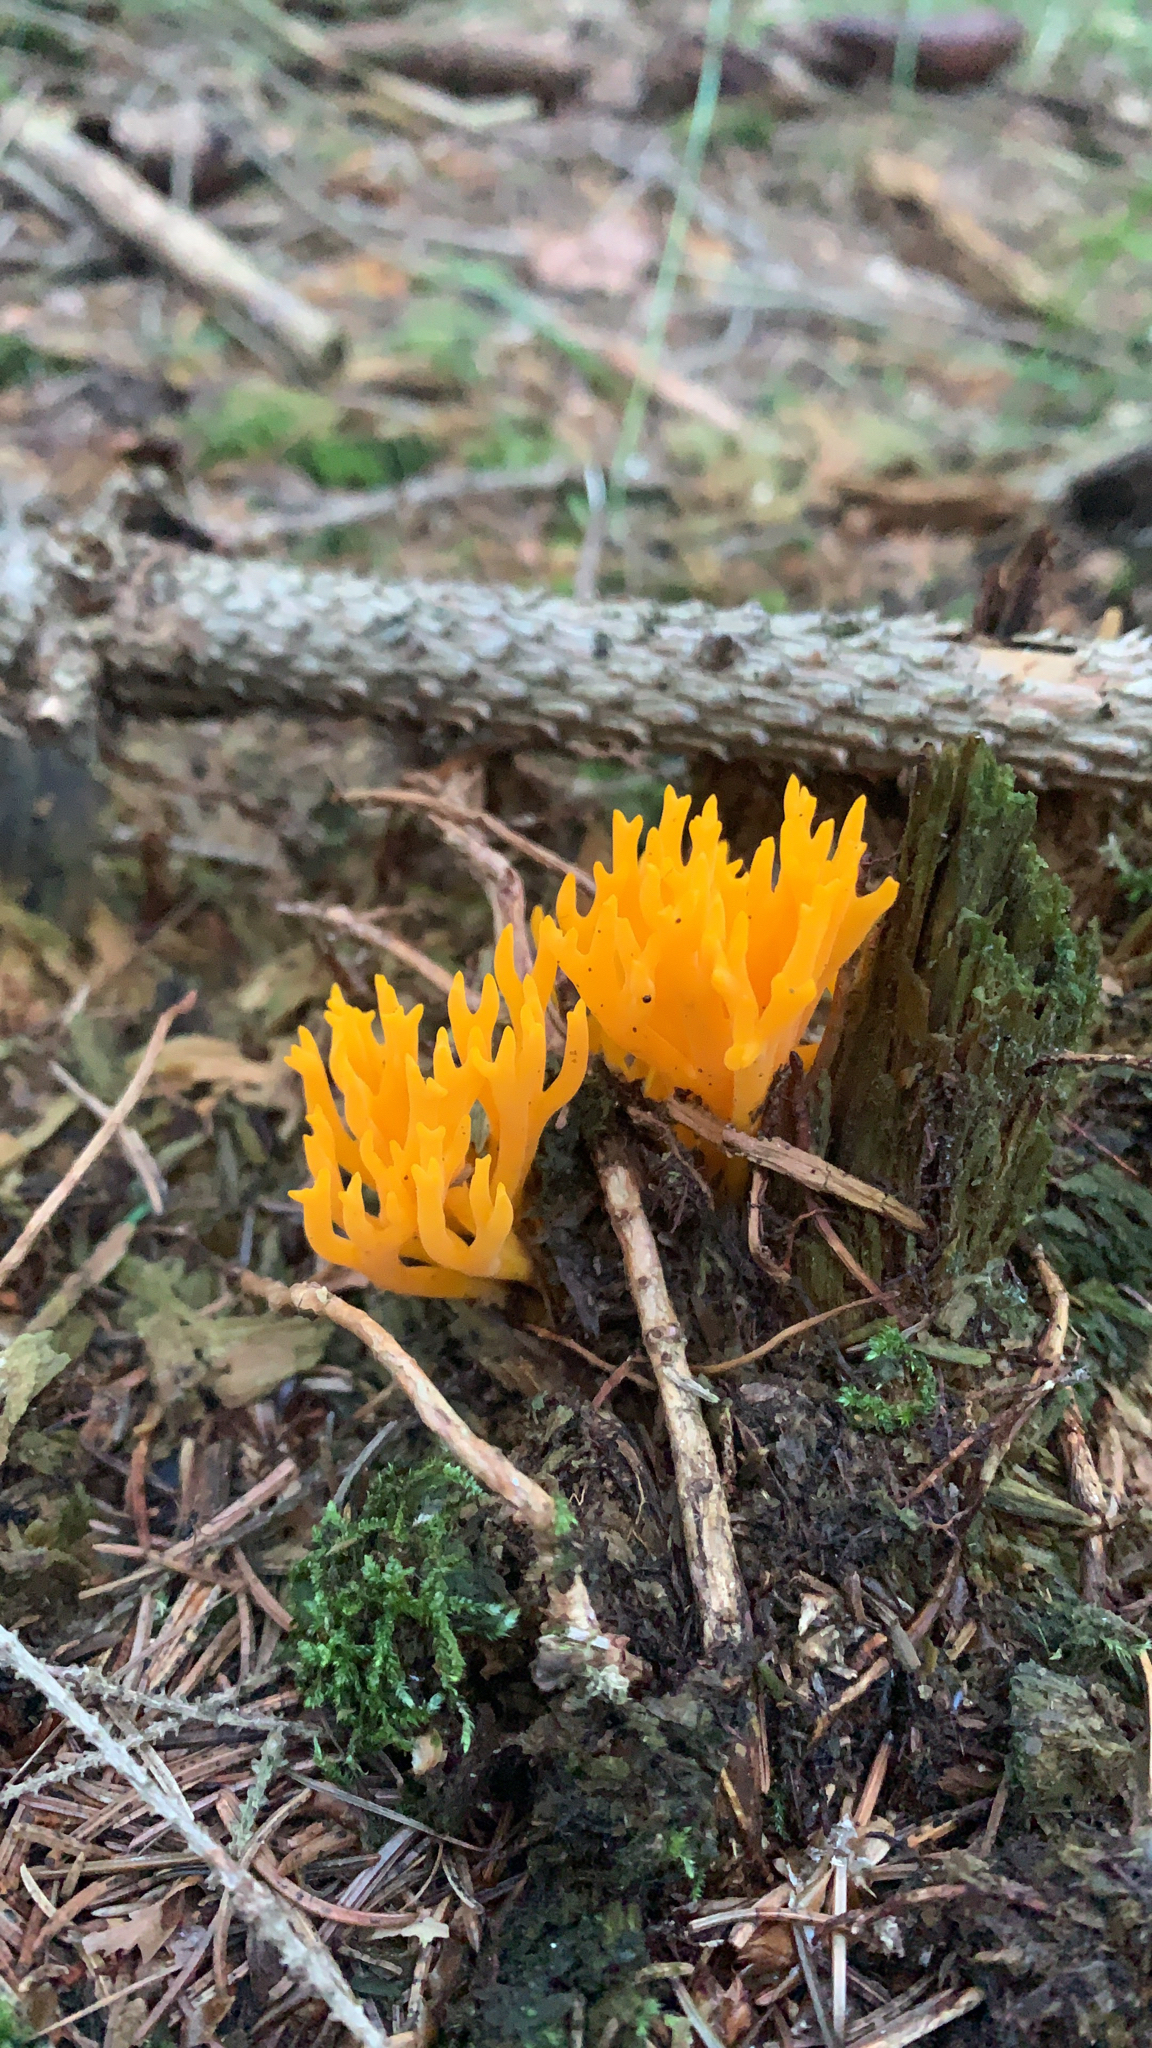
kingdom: Fungi
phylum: Basidiomycota
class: Dacrymycetes
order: Dacrymycetales
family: Dacrymycetaceae
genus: Calocera
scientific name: Calocera viscosa
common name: Yellow stagshorn
